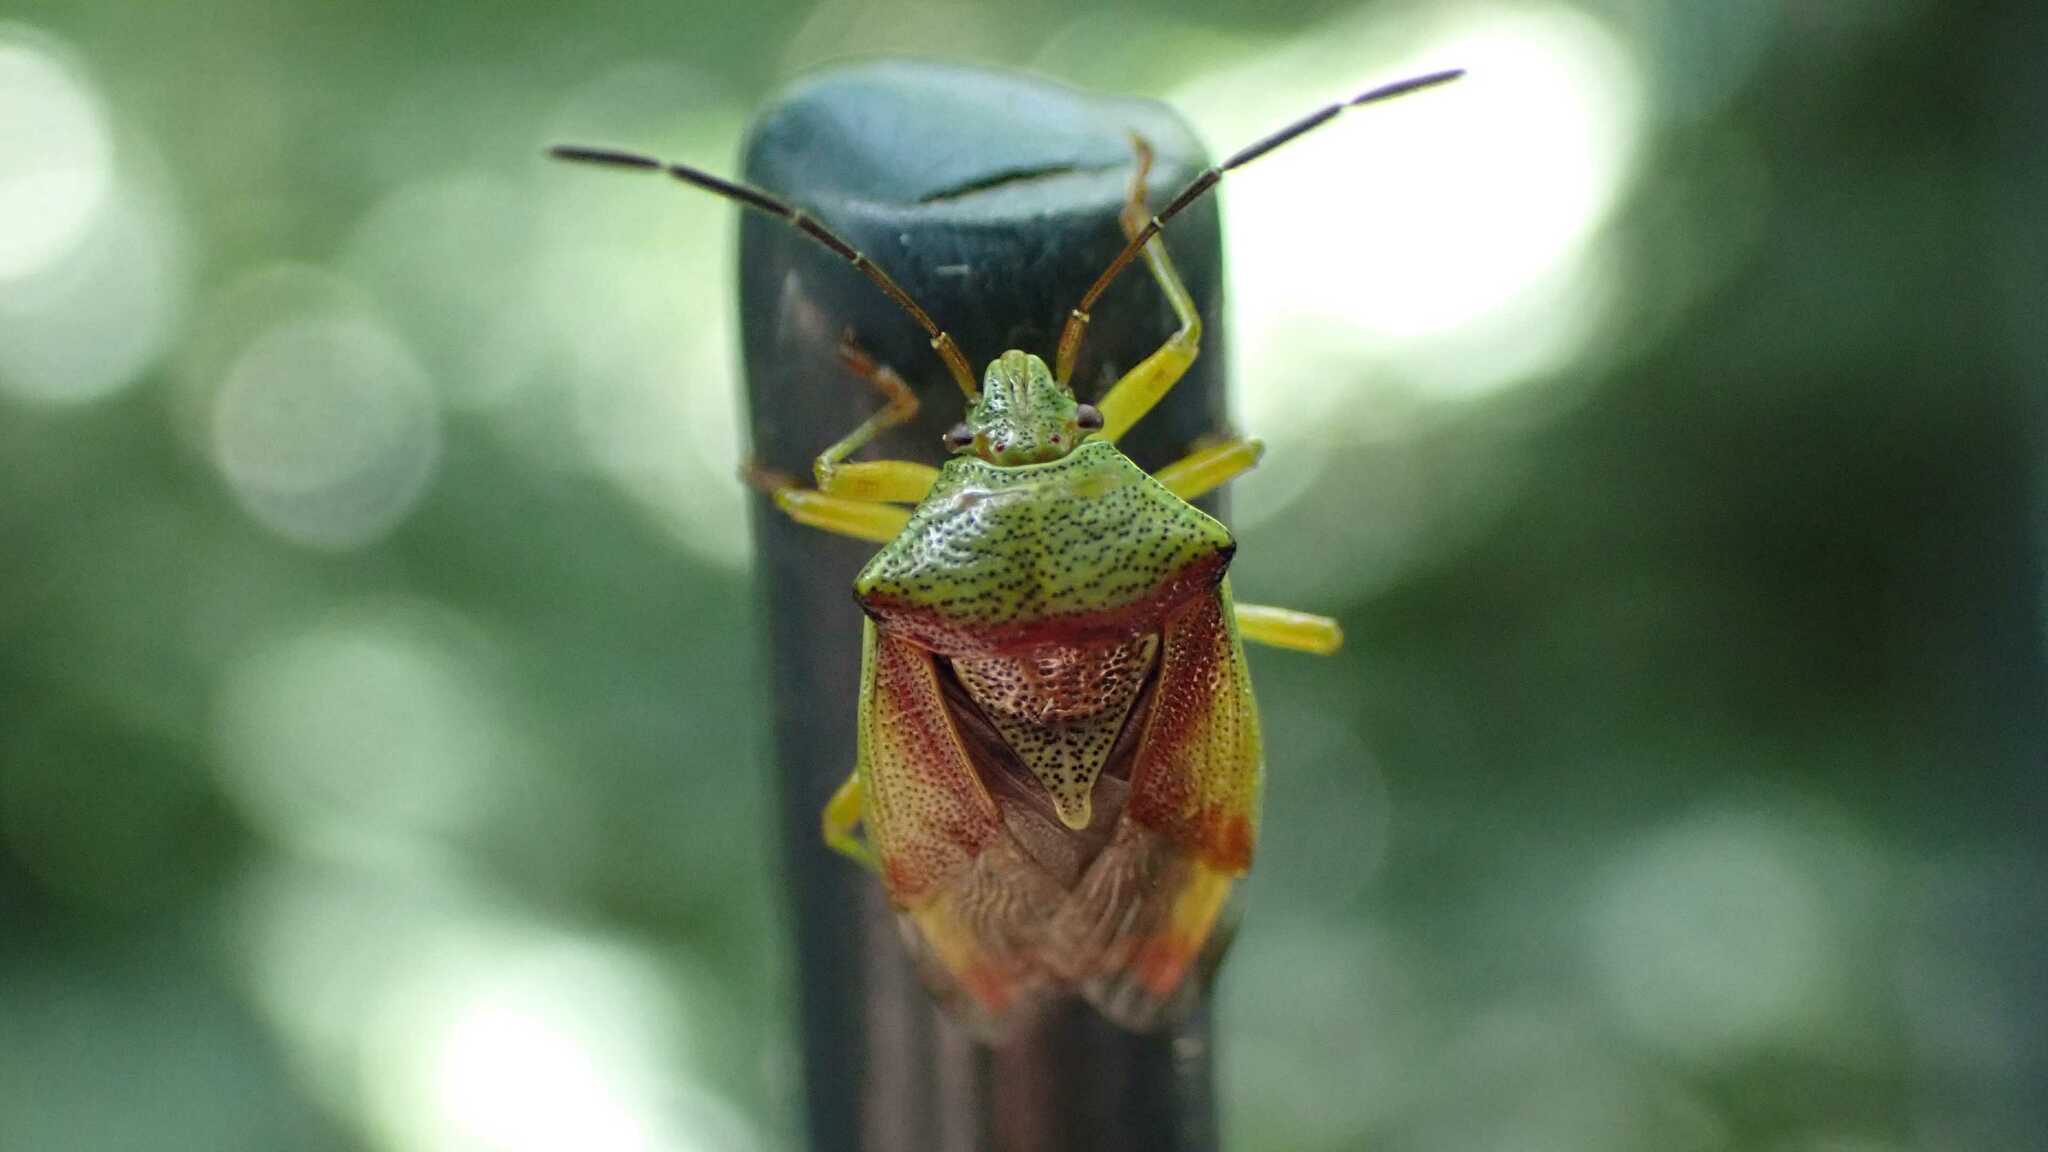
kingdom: Animalia
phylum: Arthropoda
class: Insecta
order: Hemiptera
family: Acanthosomatidae
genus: Elasmostethus
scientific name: Elasmostethus
